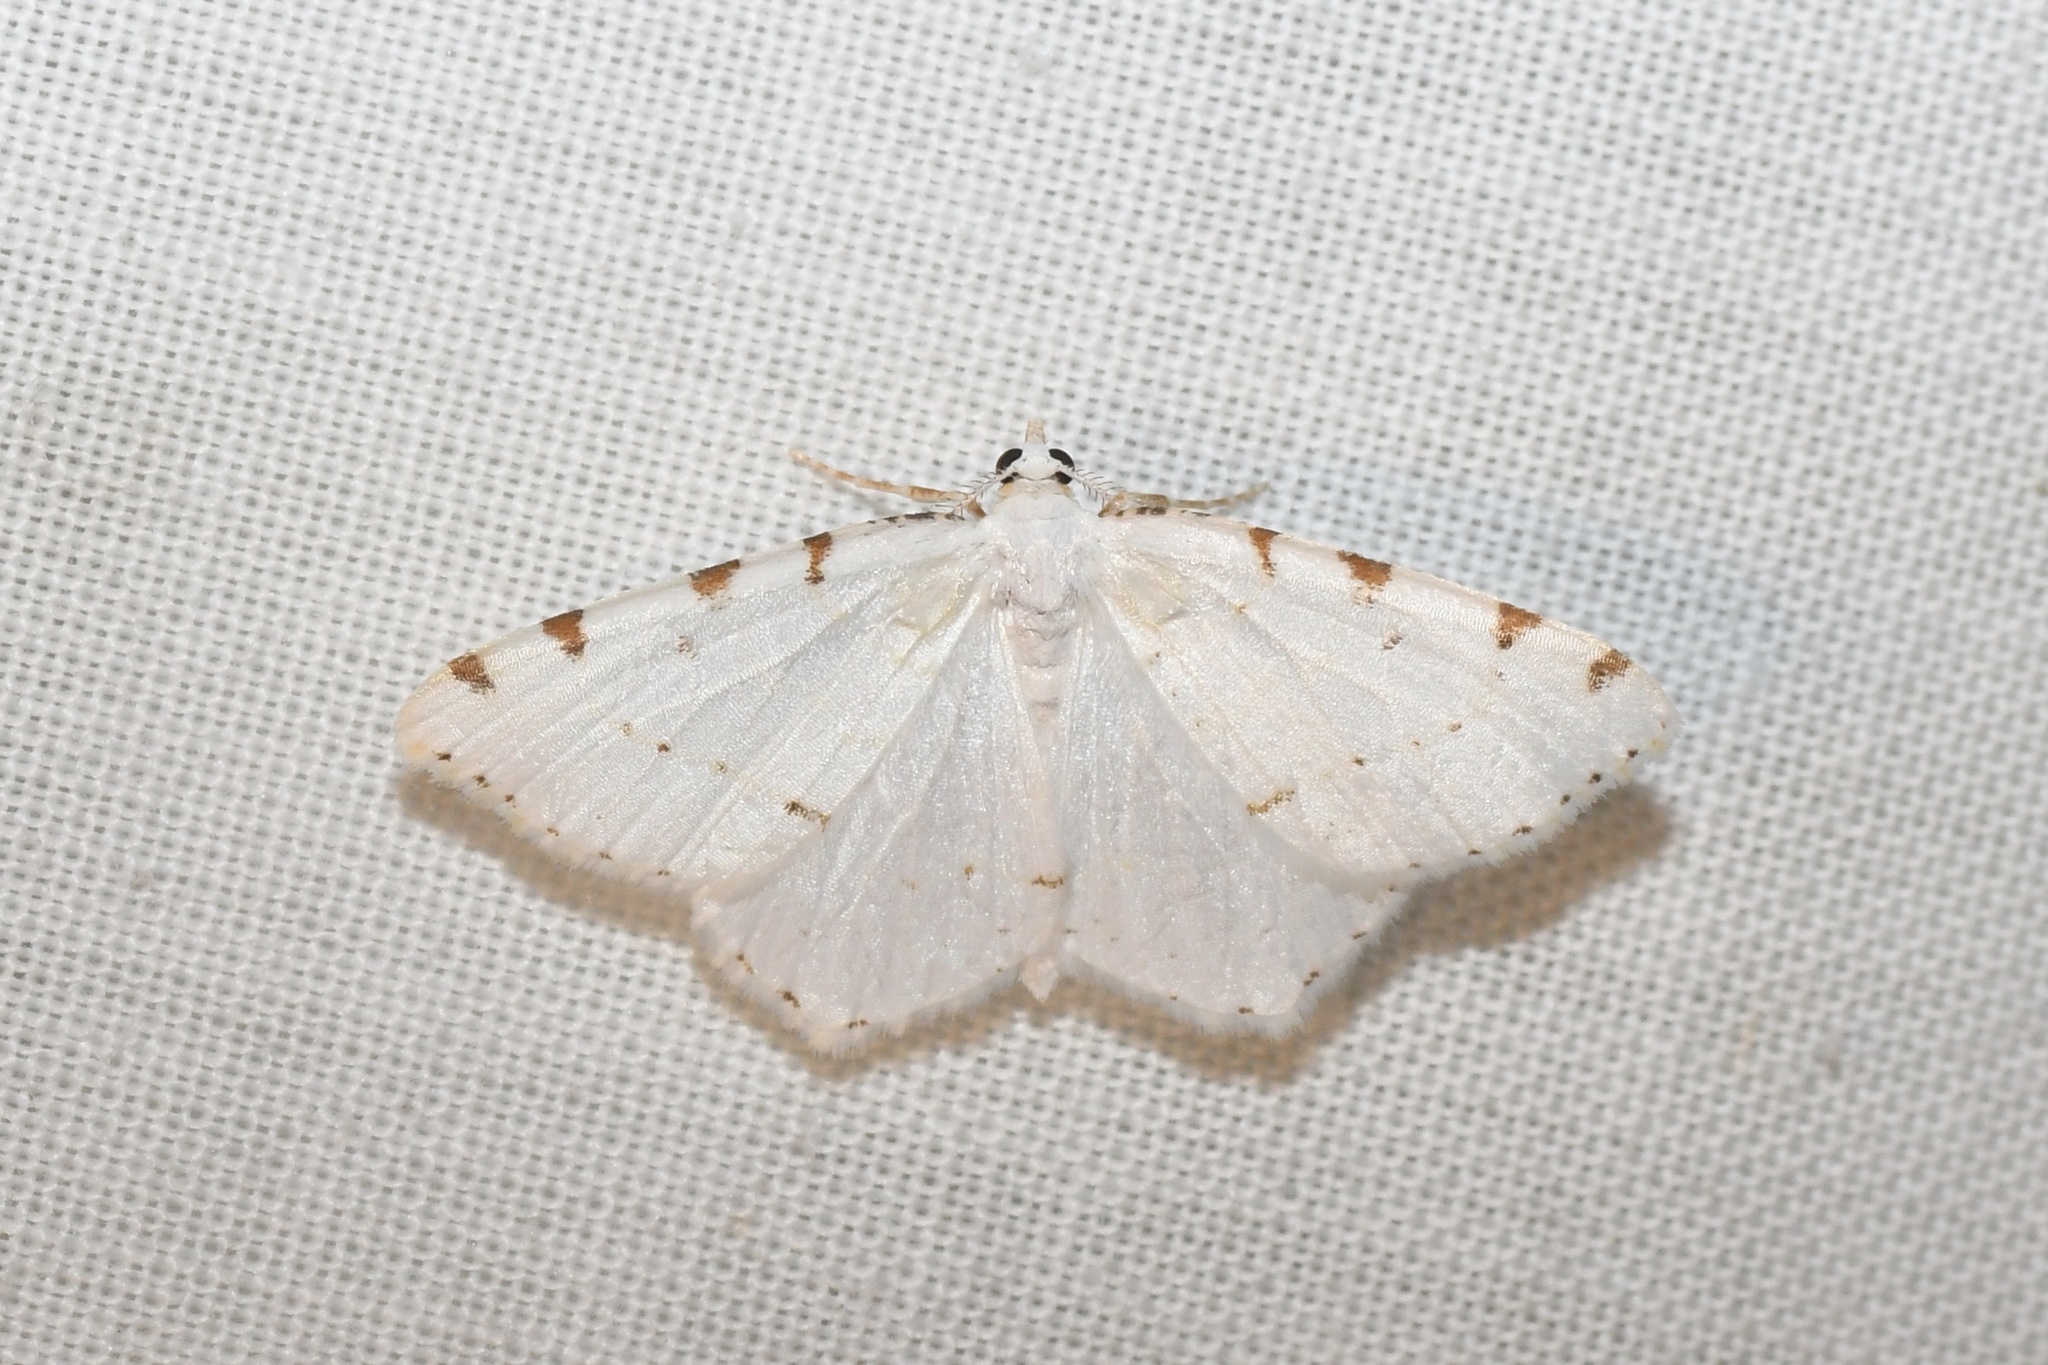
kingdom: Animalia
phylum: Arthropoda
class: Insecta
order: Lepidoptera
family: Geometridae
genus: Macaria
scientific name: Macaria pustularia
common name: Lesser maple spanworm moth
